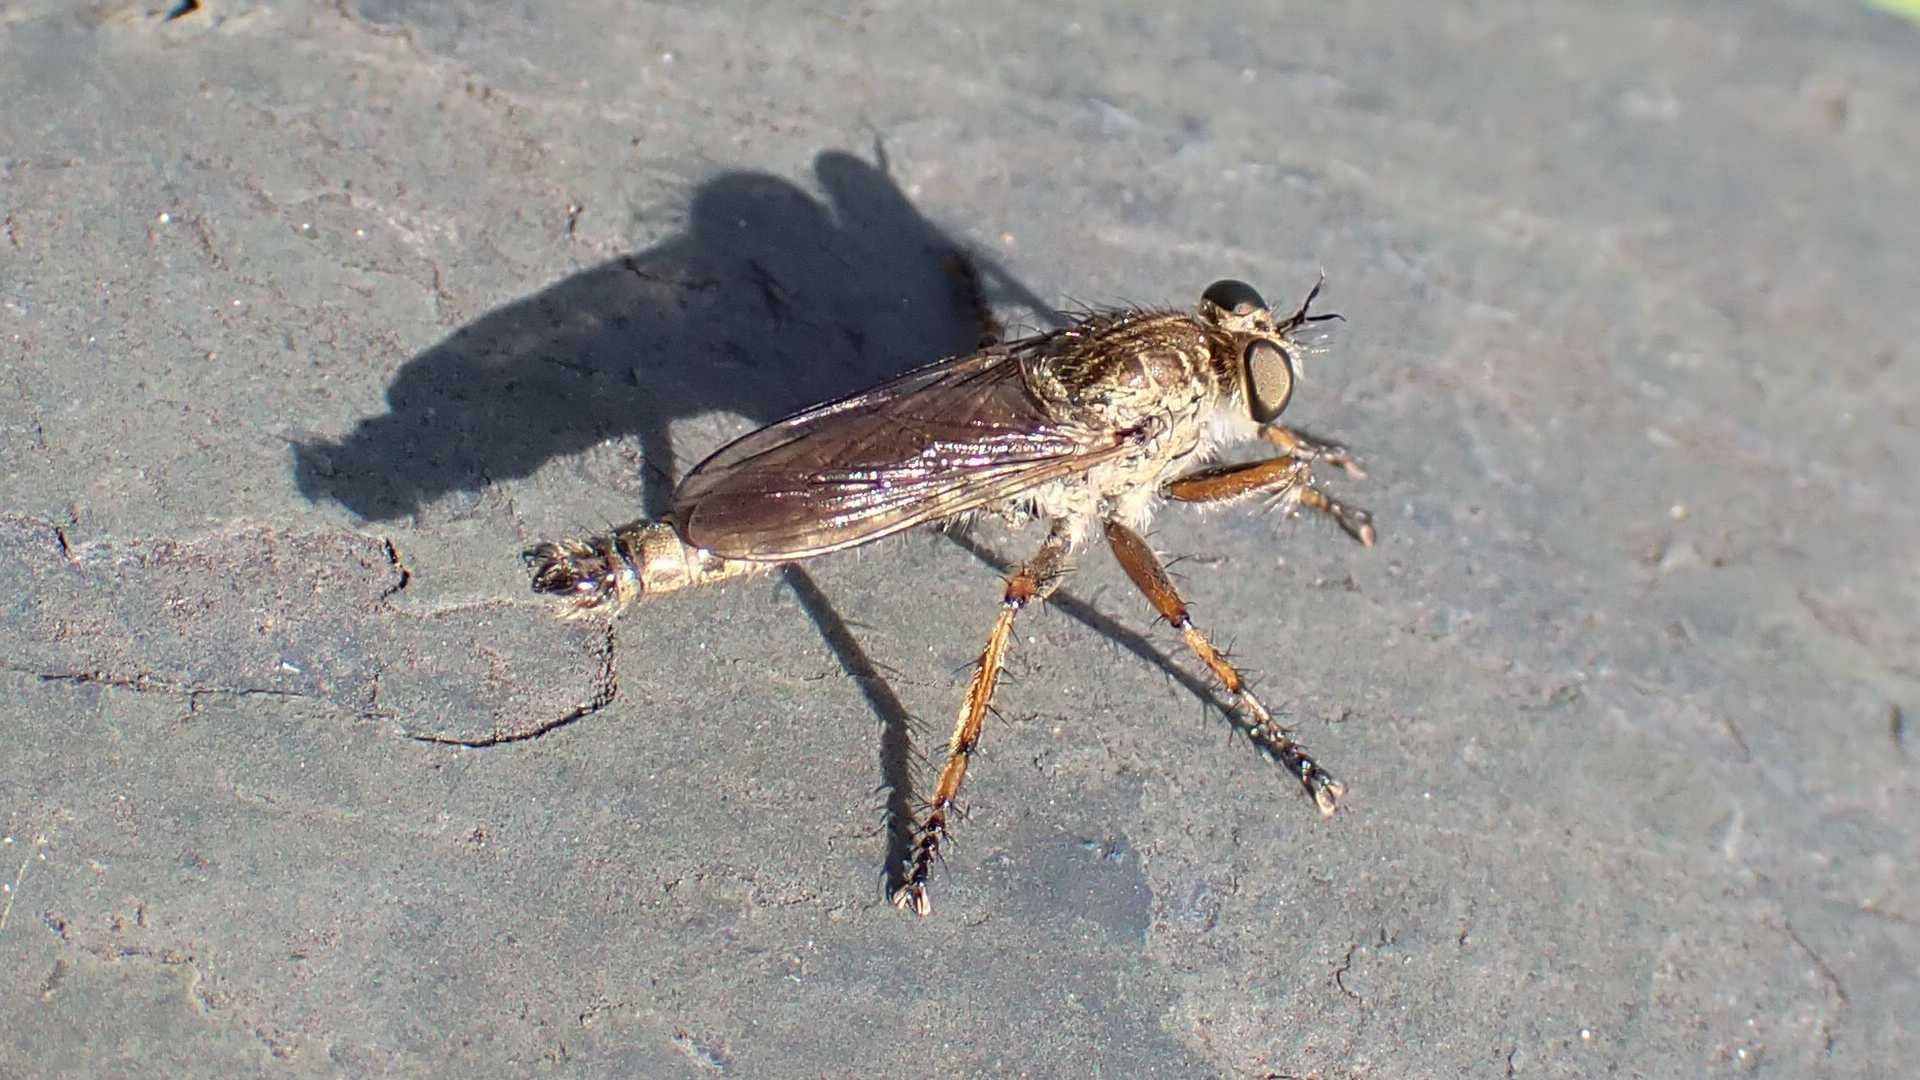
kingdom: Animalia
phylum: Arthropoda
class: Insecta
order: Diptera
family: Asilidae
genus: Epitriptus
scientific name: Epitriptus cingulatus
